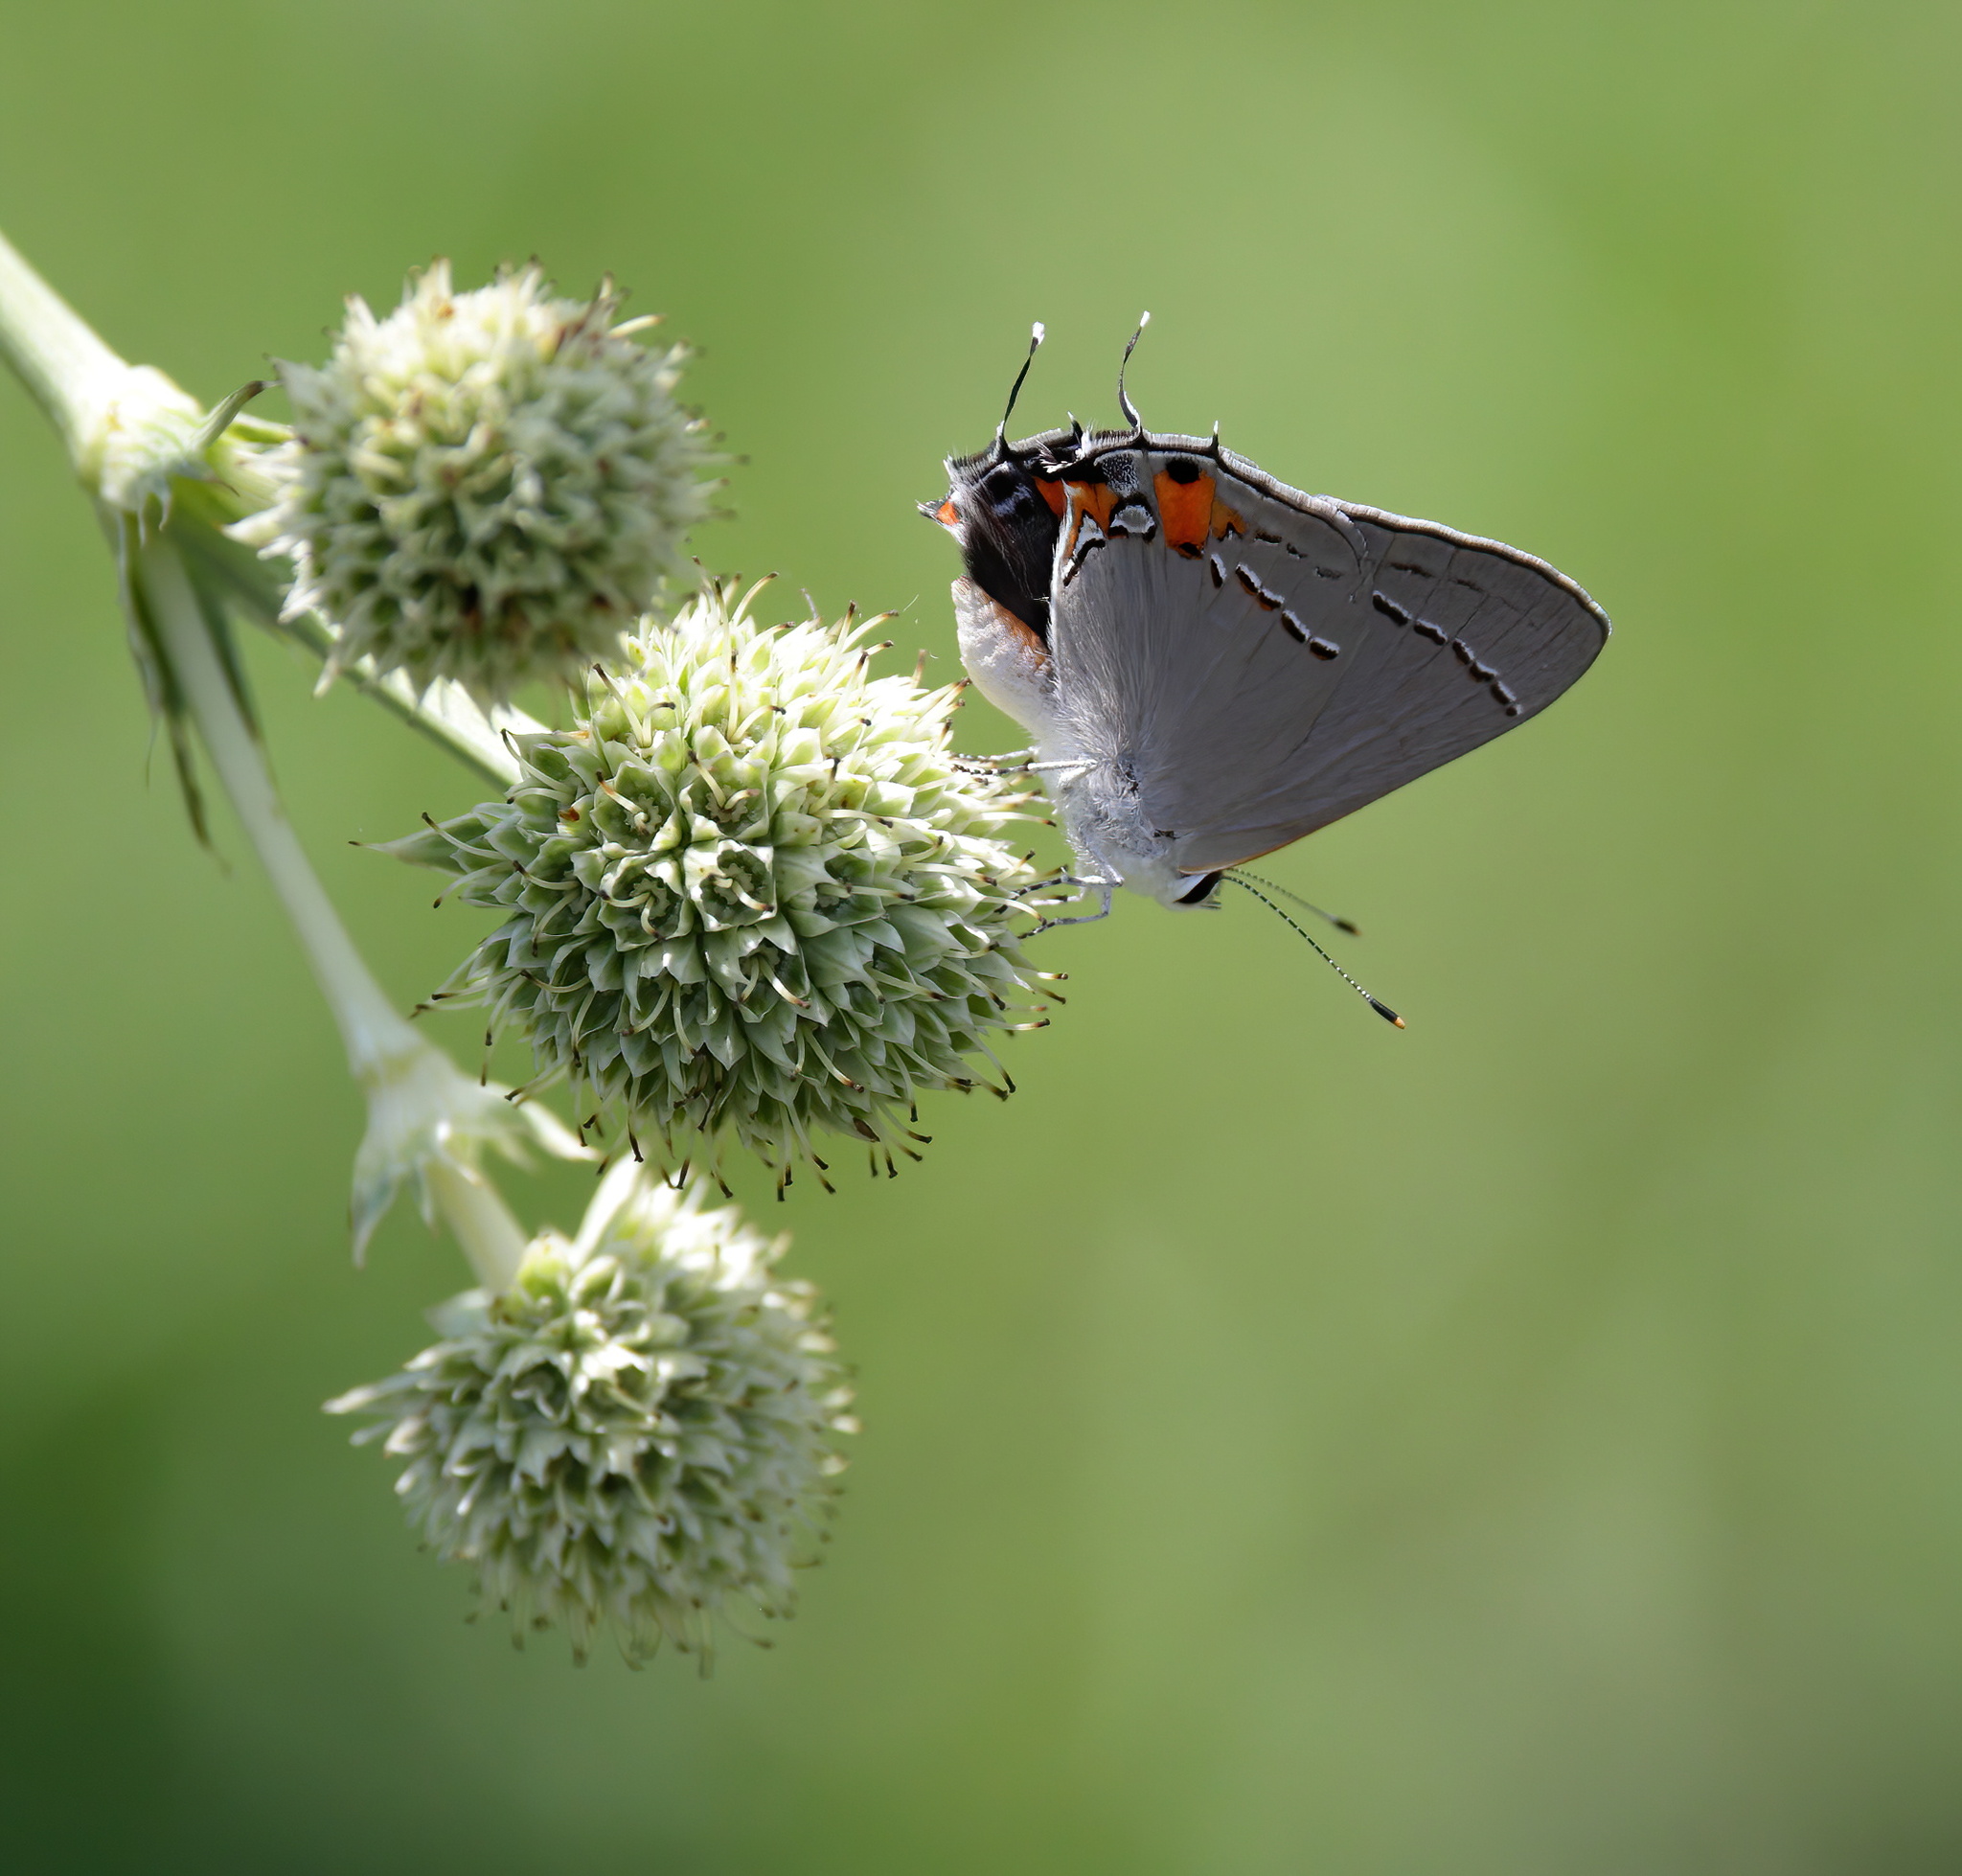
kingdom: Animalia
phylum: Arthropoda
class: Insecta
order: Lepidoptera
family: Lycaenidae
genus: Strymon
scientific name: Strymon melinus
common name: Gray hairstreak
